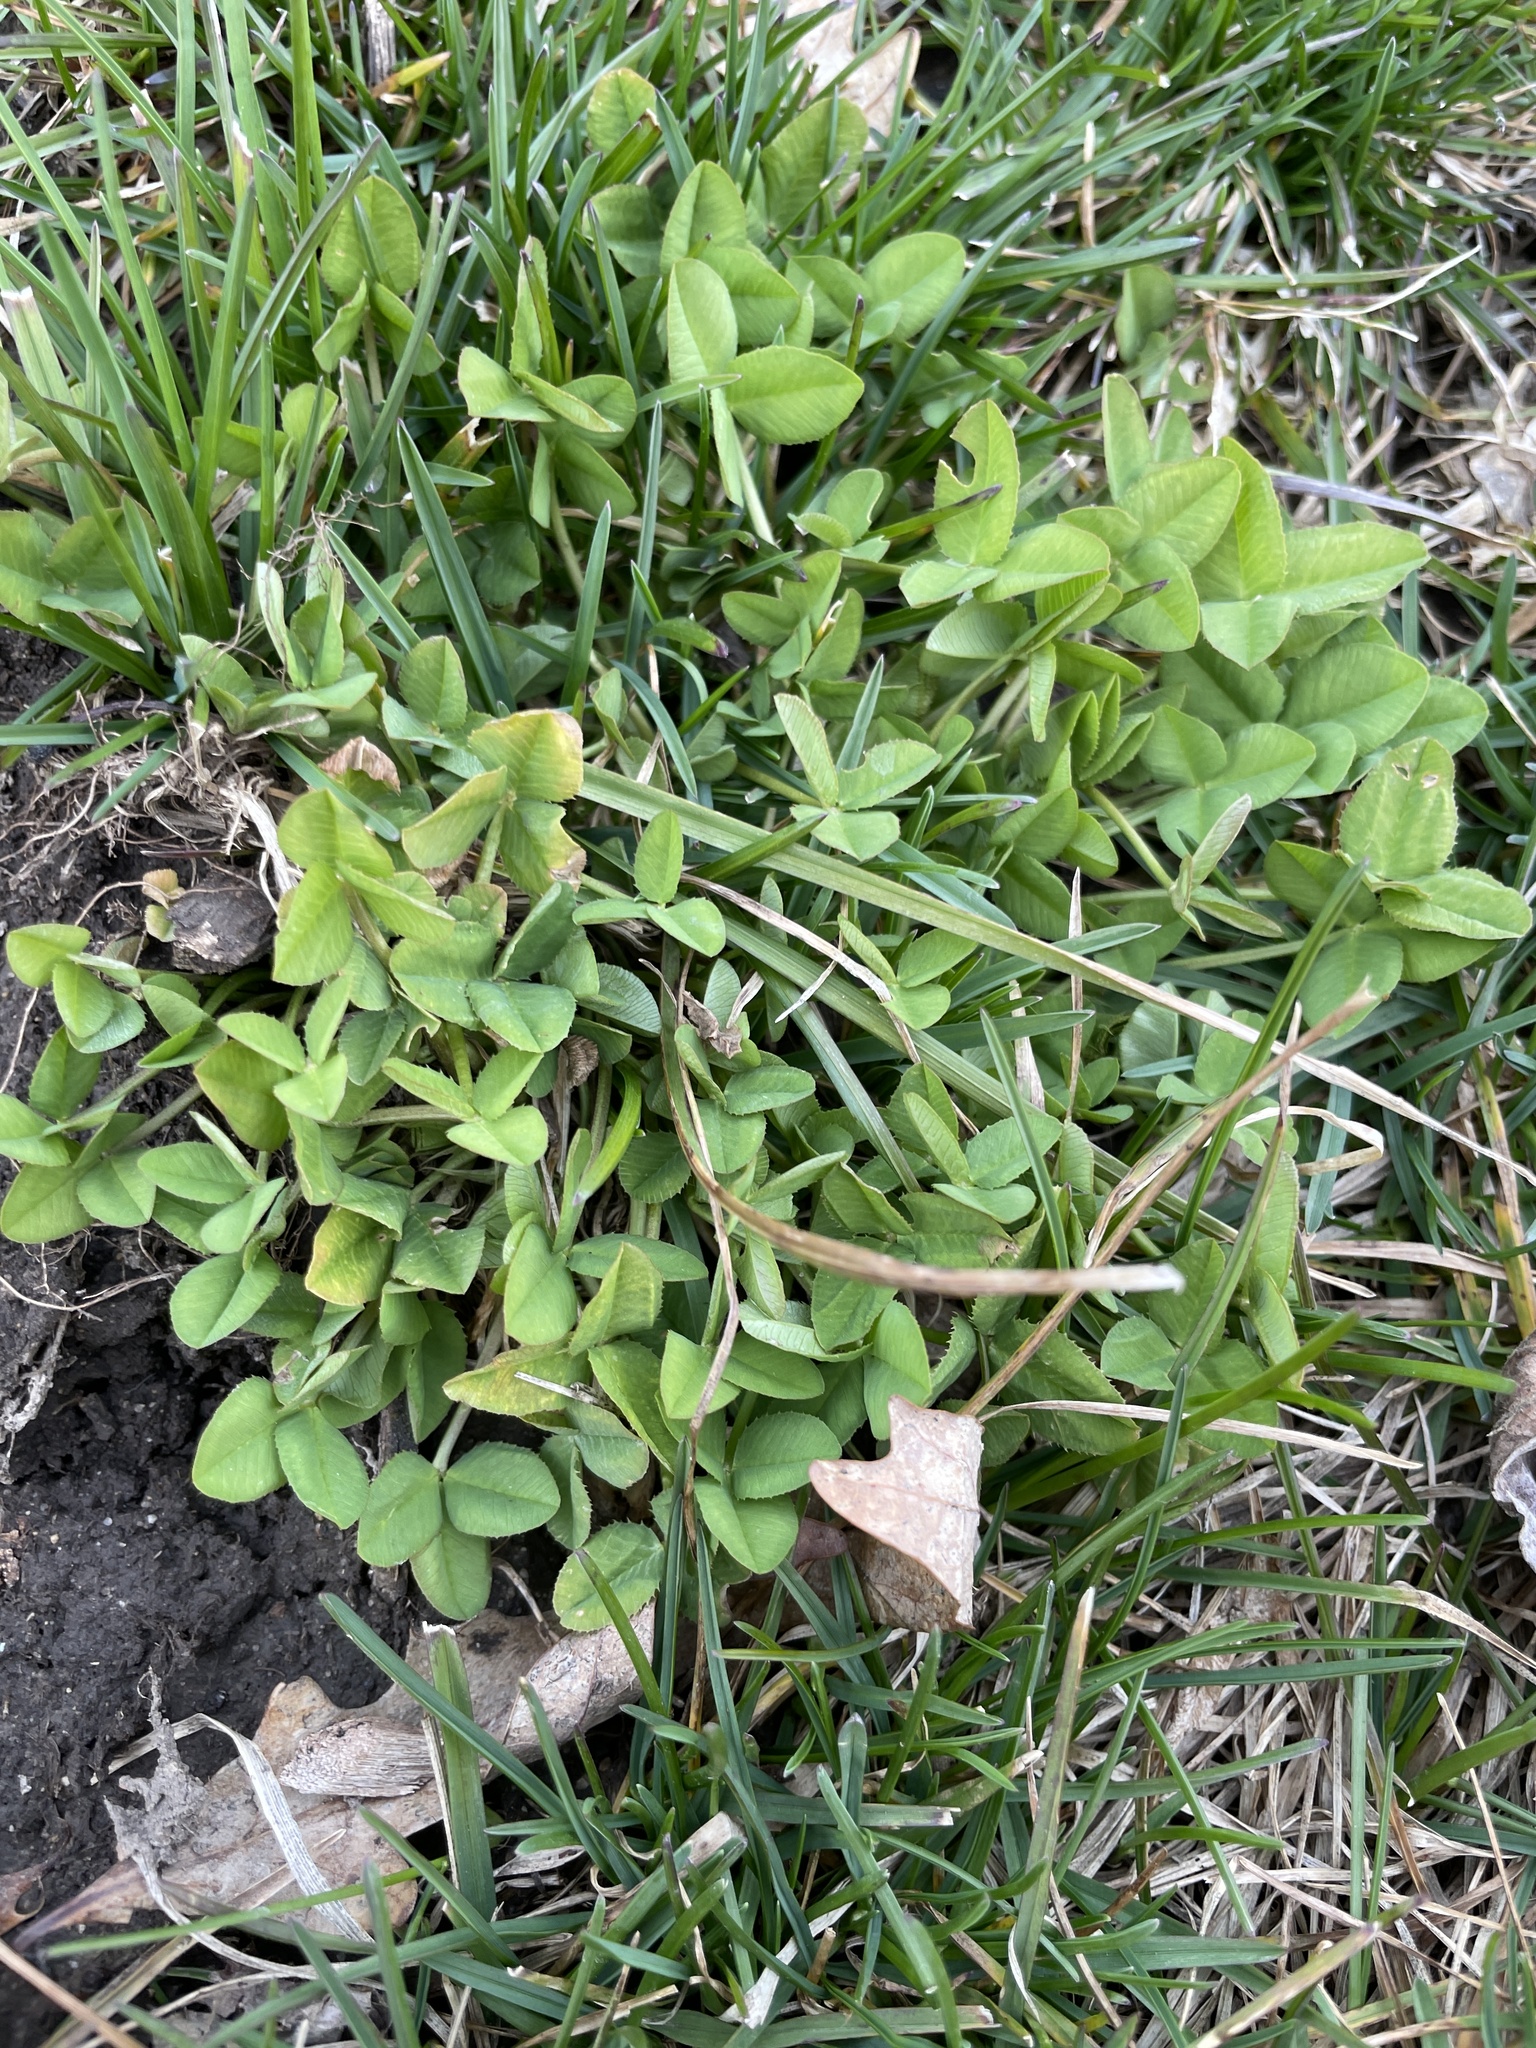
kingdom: Plantae
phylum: Tracheophyta
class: Magnoliopsida
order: Fabales
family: Fabaceae
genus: Trifolium
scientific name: Trifolium repens
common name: White clover
